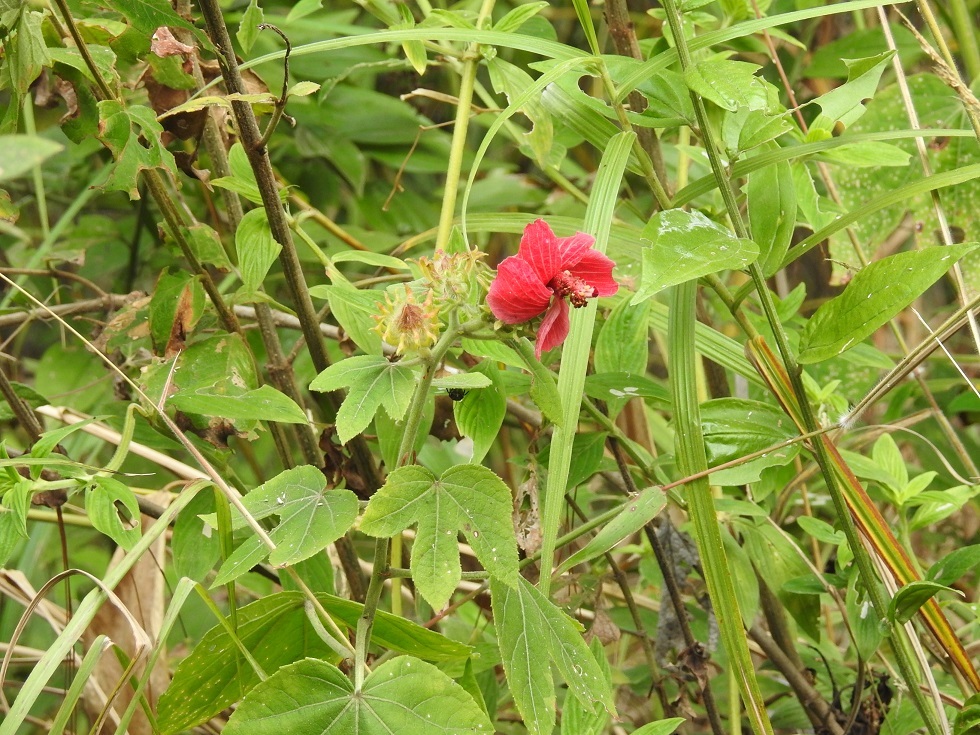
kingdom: Plantae
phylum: Tracheophyta
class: Magnoliopsida
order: Malvales
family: Malvaceae
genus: Hibiscus
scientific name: Hibiscus uncinellus
